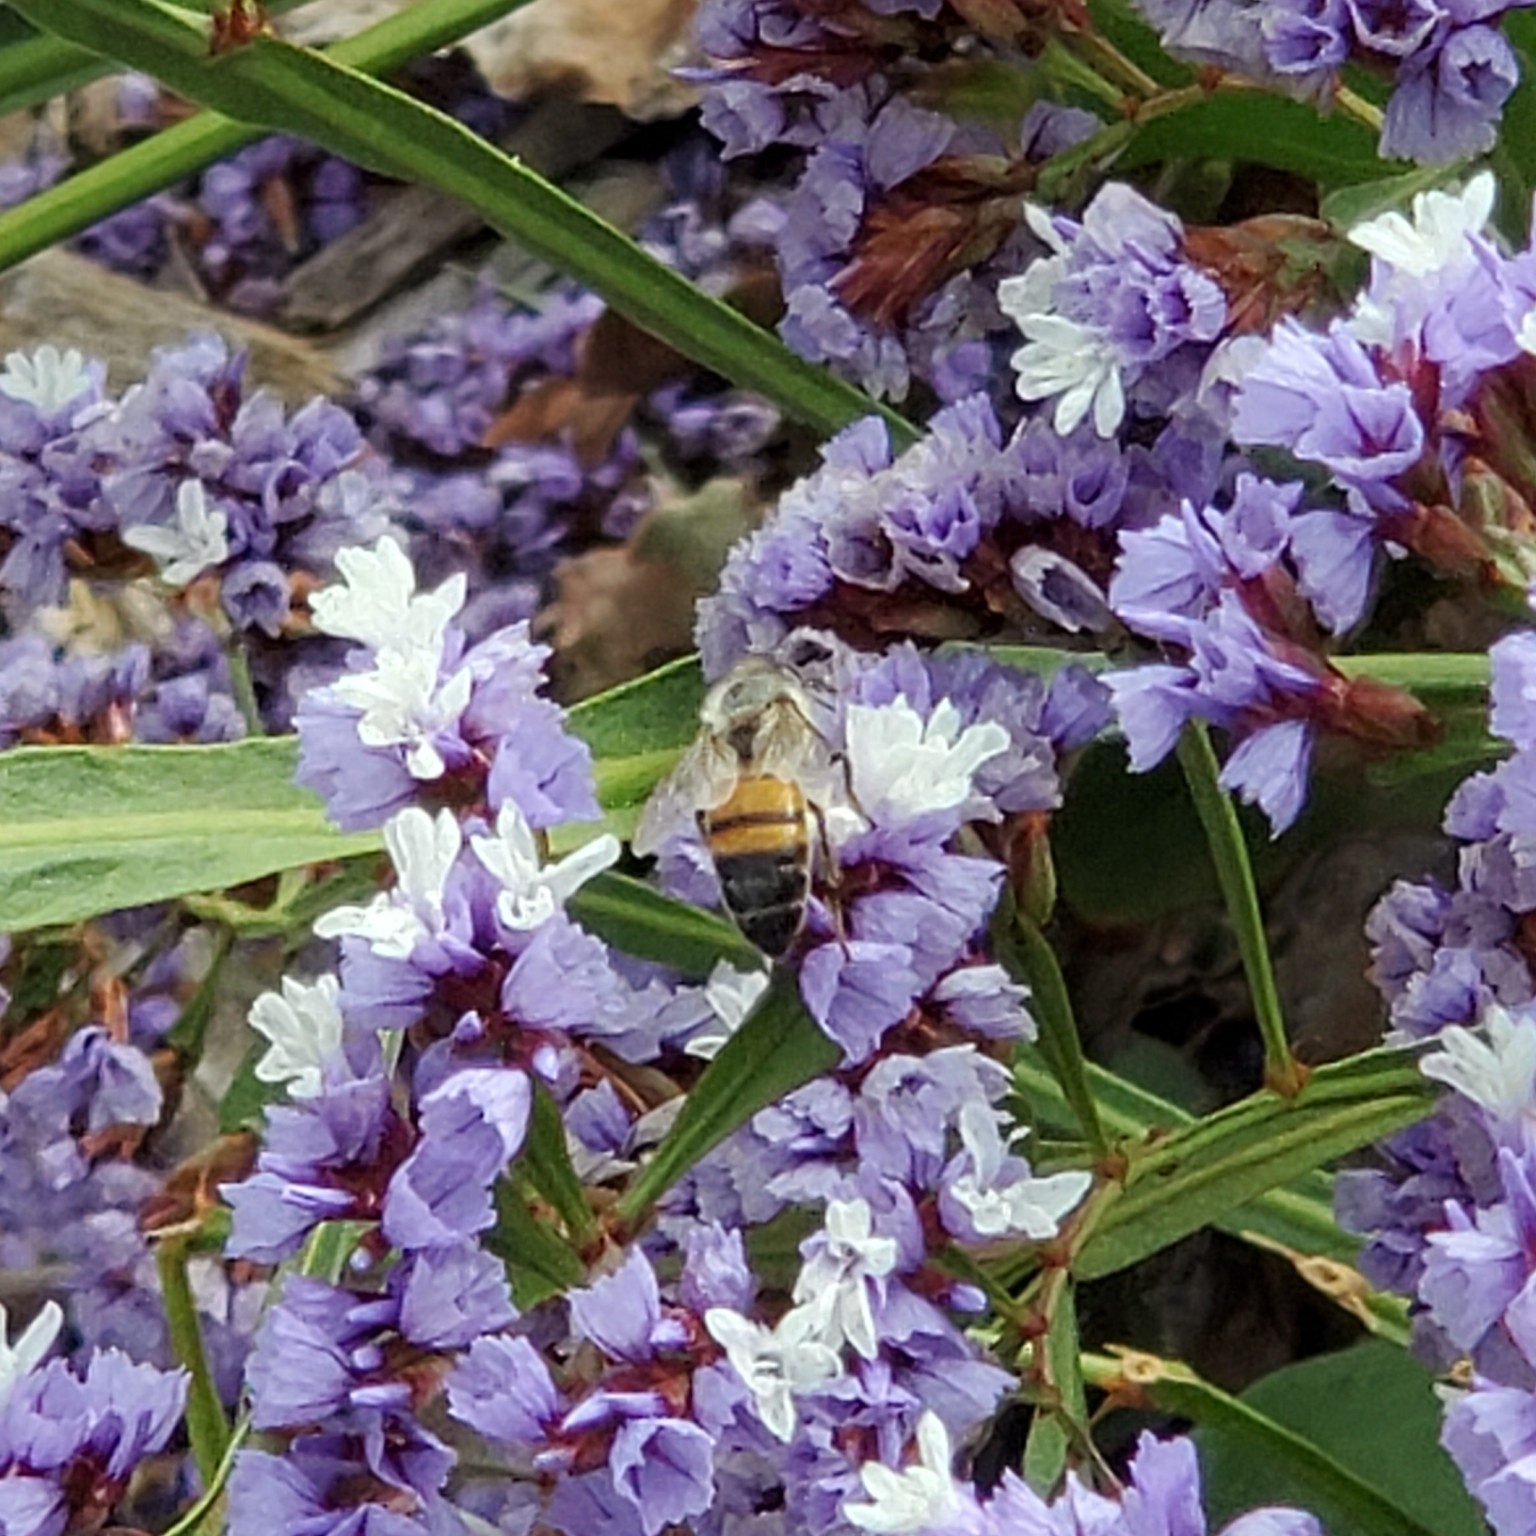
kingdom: Animalia
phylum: Arthropoda
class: Insecta
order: Hymenoptera
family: Apidae
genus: Apis
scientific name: Apis mellifera
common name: Honey bee
